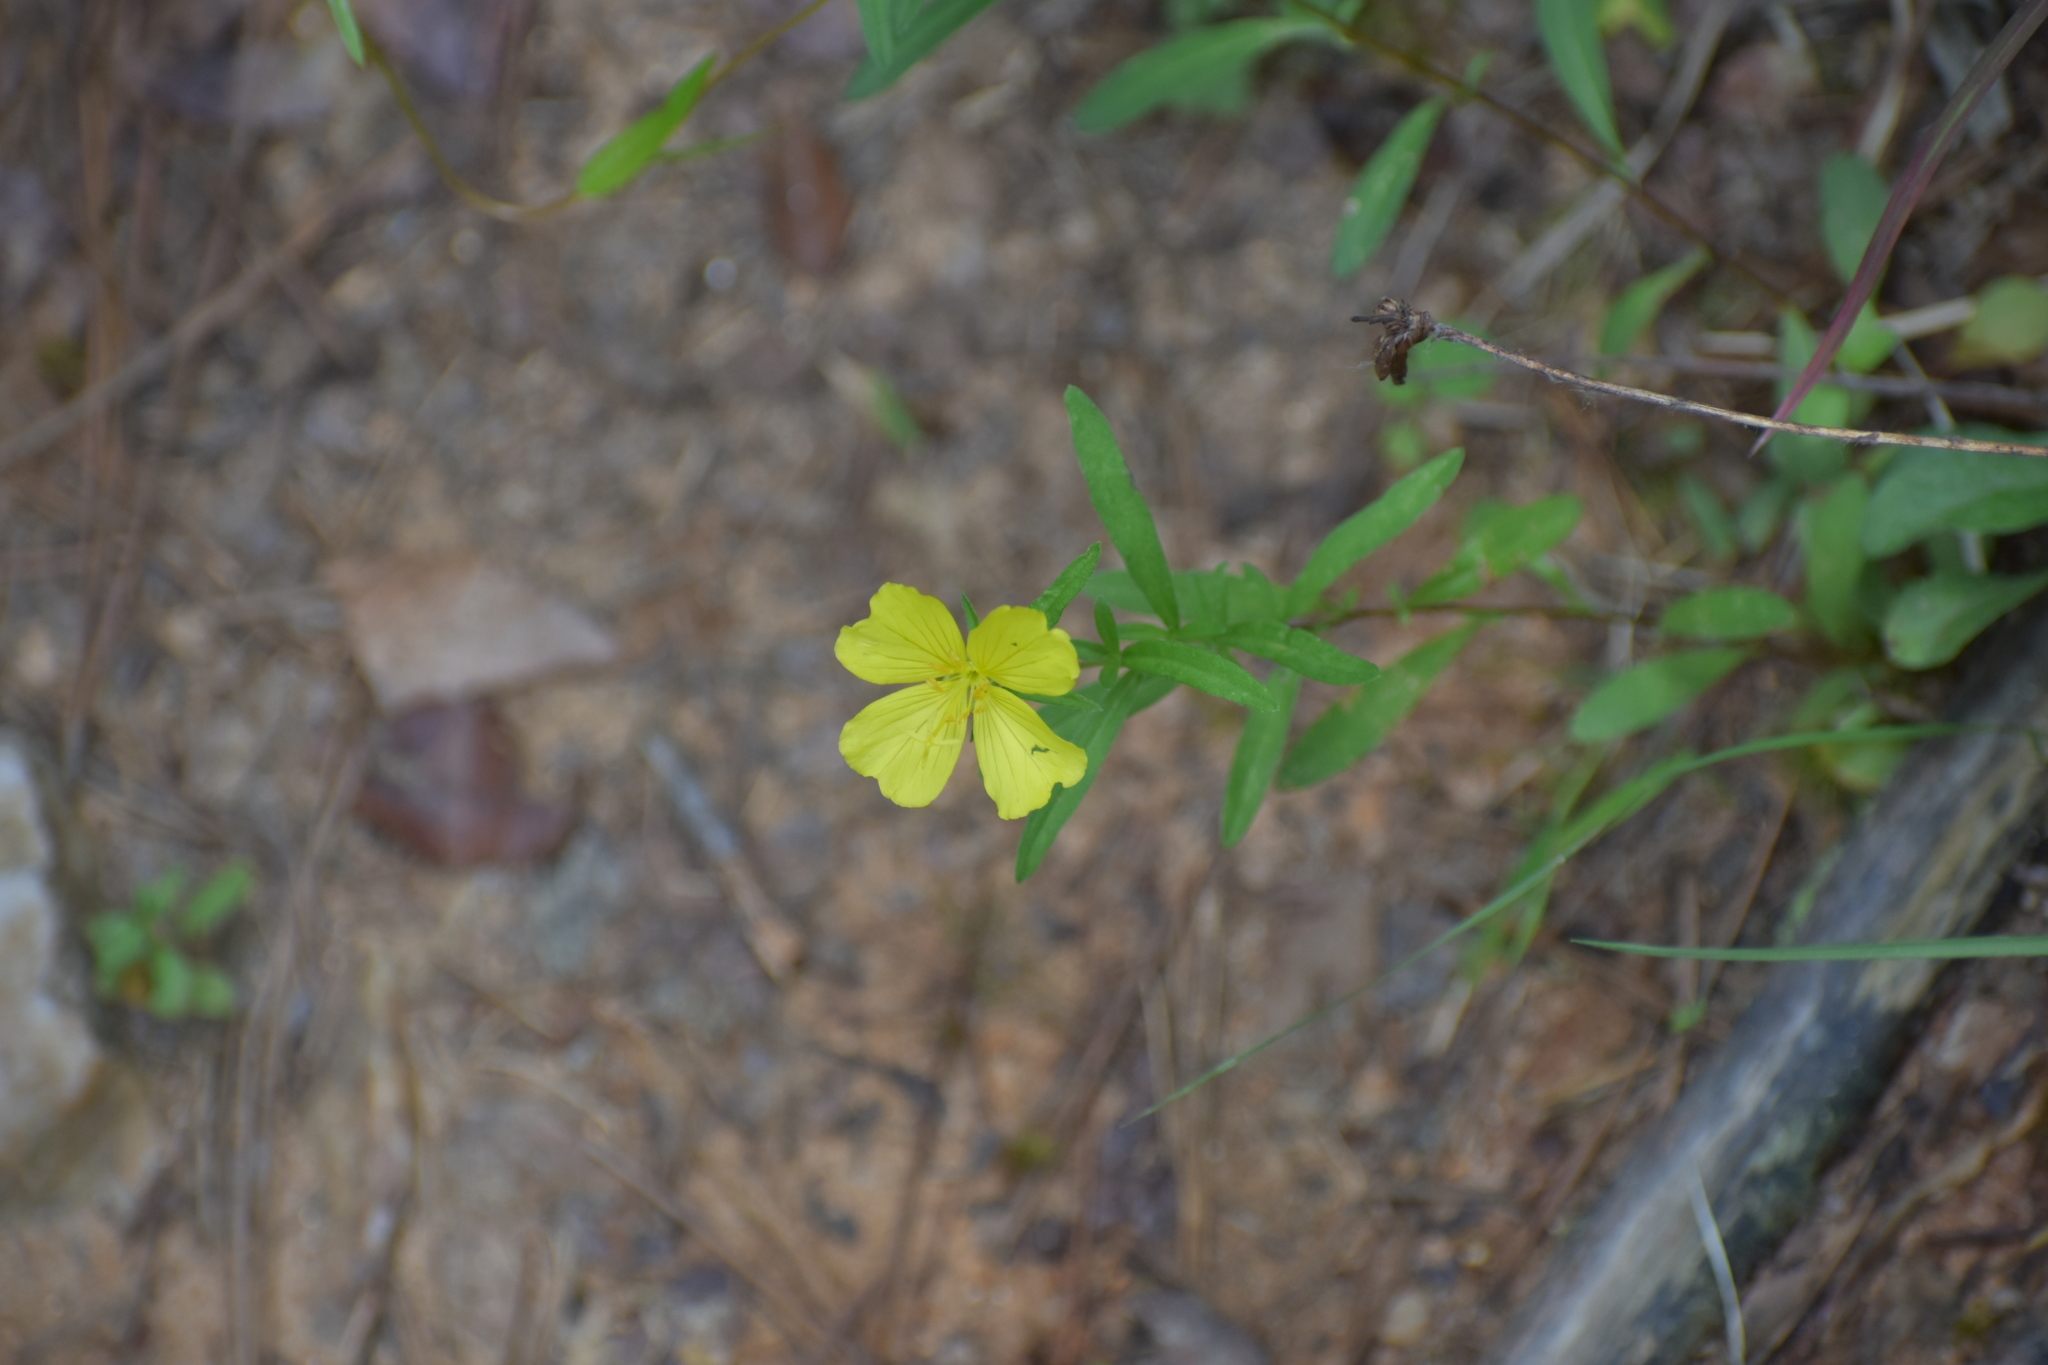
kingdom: Plantae
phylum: Tracheophyta
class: Magnoliopsida
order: Myrtales
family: Onagraceae
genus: Oenothera
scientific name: Oenothera fruticosa
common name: Southern sundrops
